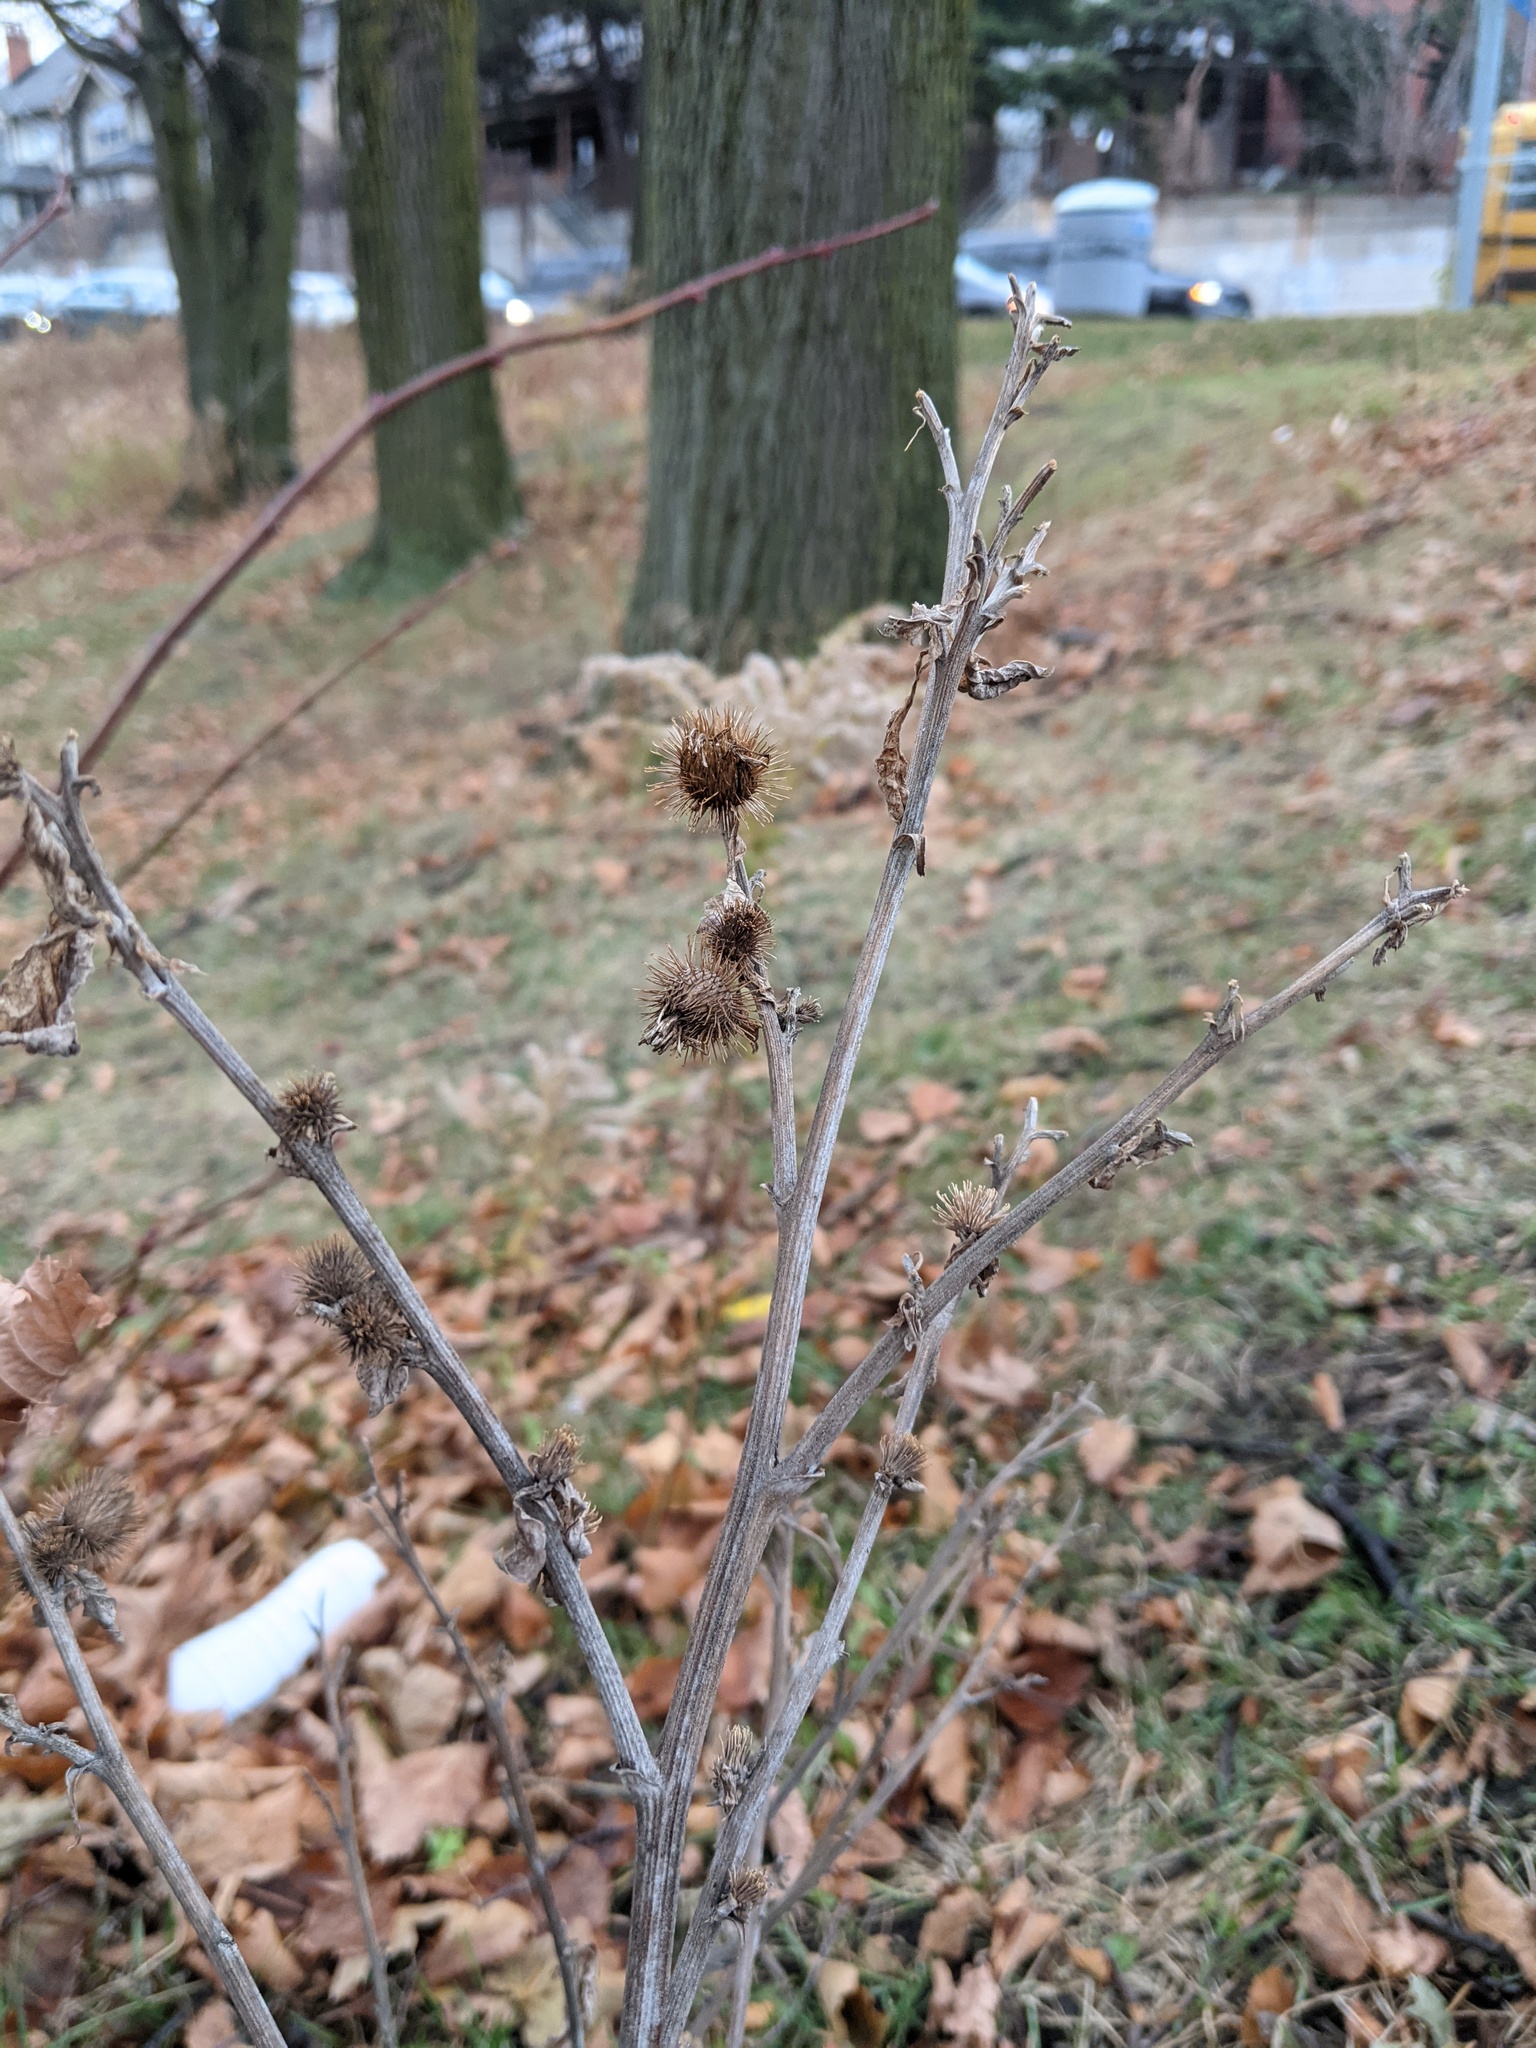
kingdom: Plantae
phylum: Tracheophyta
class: Magnoliopsida
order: Asterales
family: Asteraceae
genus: Arctium
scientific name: Arctium minus
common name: Lesser burdock
